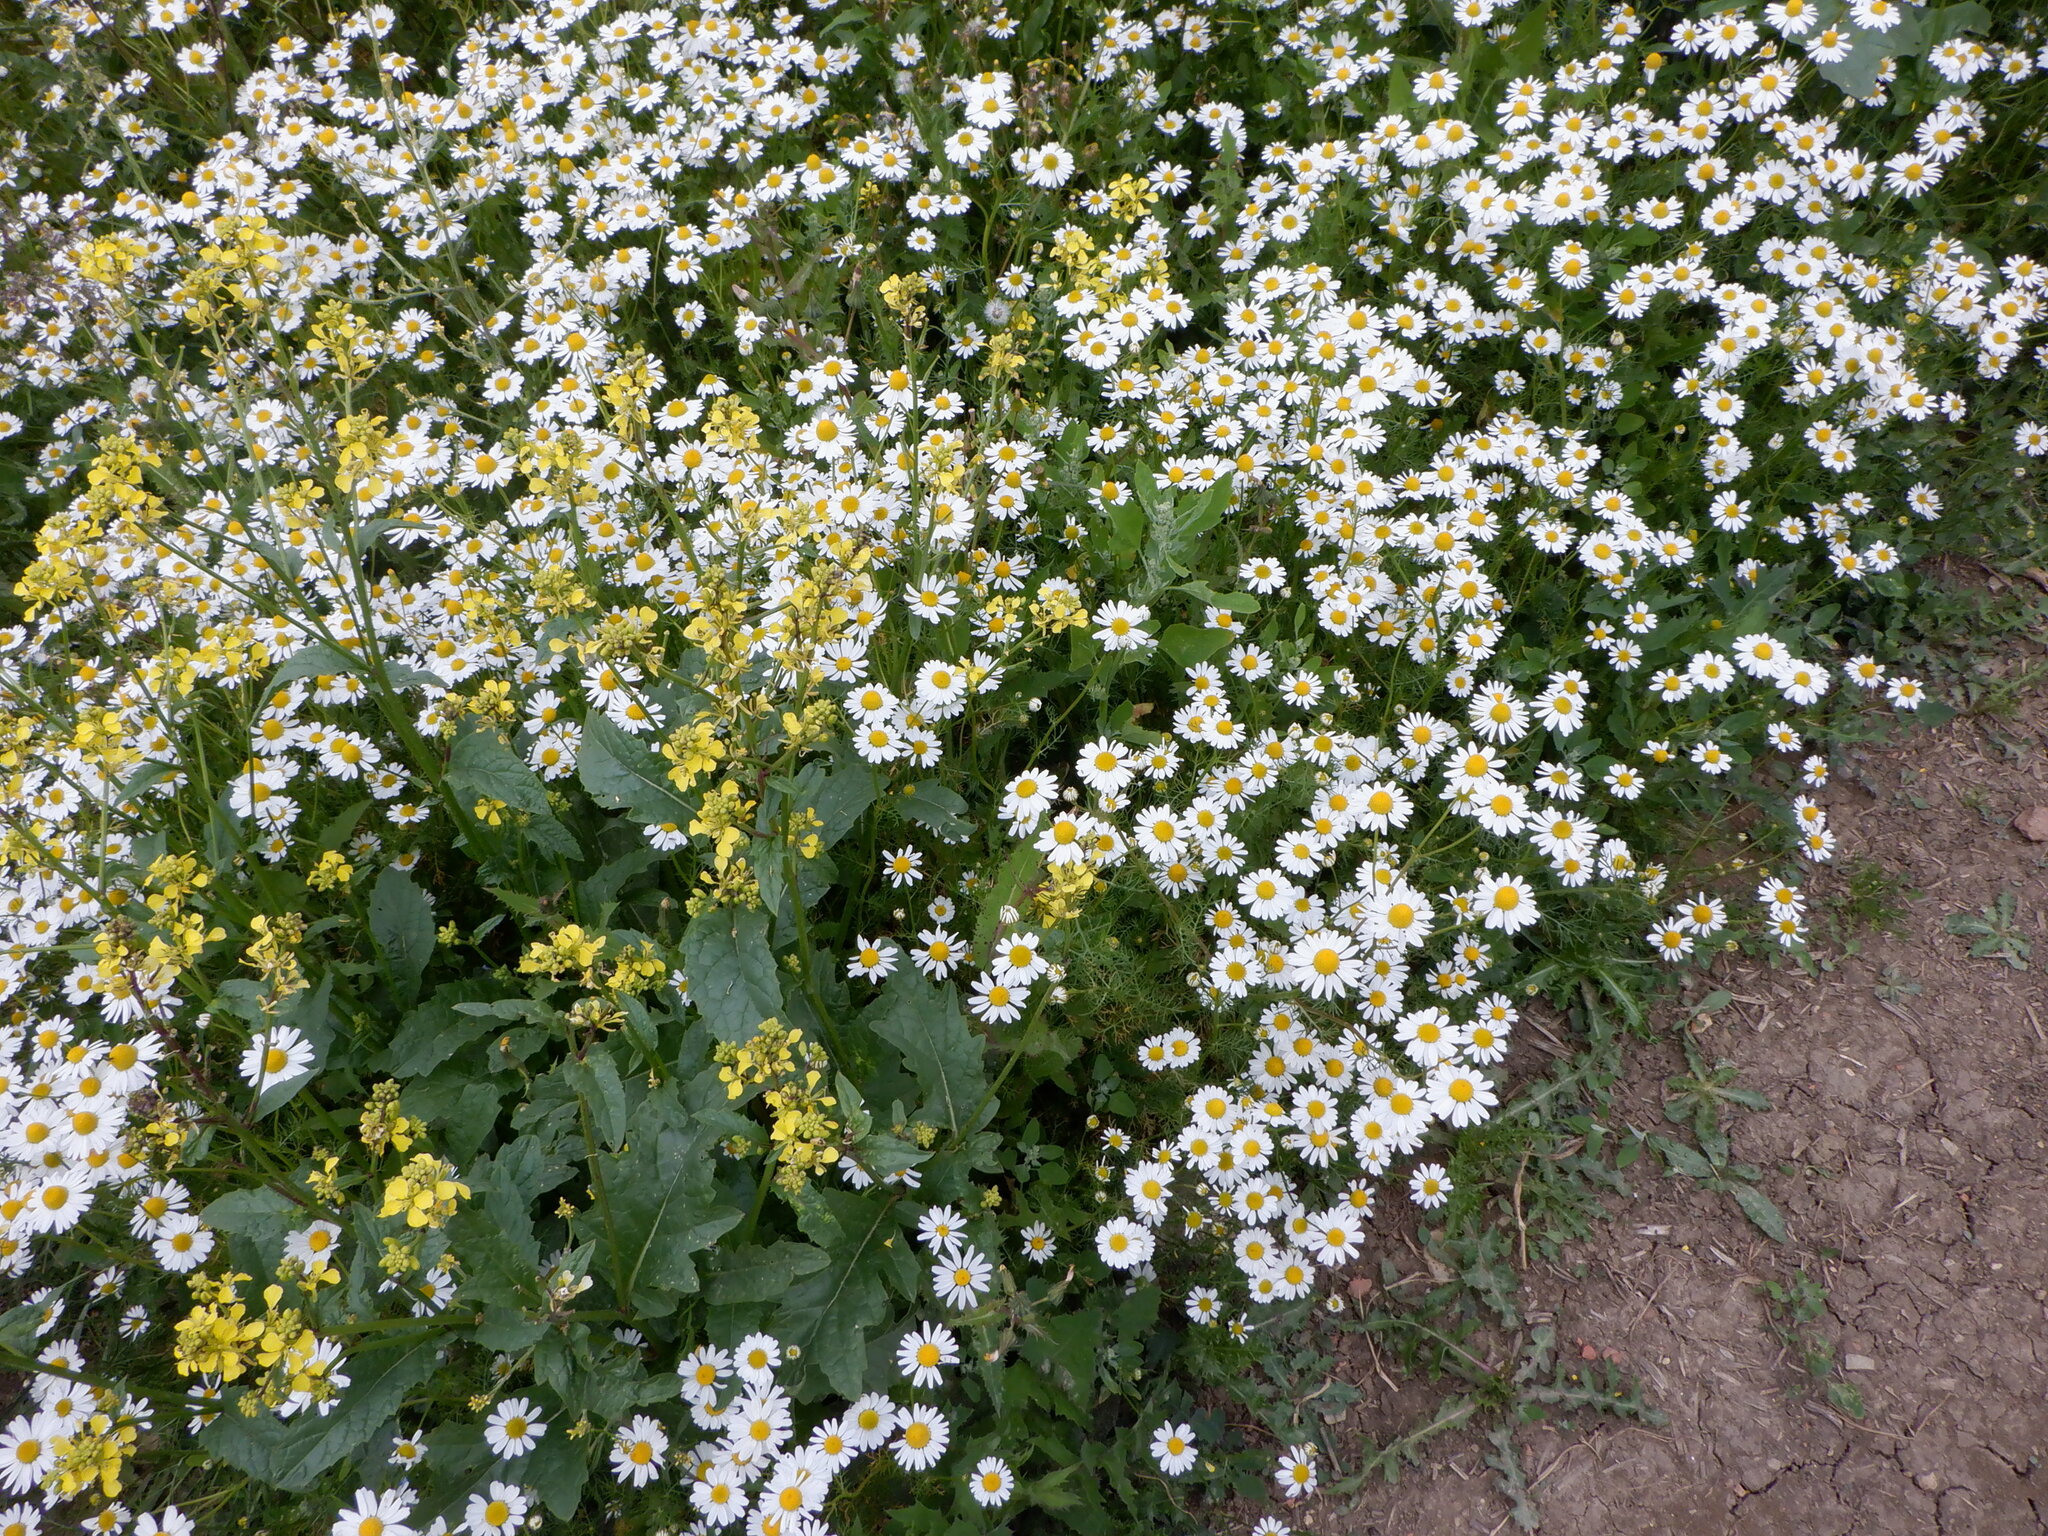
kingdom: Plantae
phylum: Tracheophyta
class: Magnoliopsida
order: Asterales
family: Asteraceae
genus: Tripleurospermum
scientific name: Tripleurospermum inodorum
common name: Scentless mayweed
